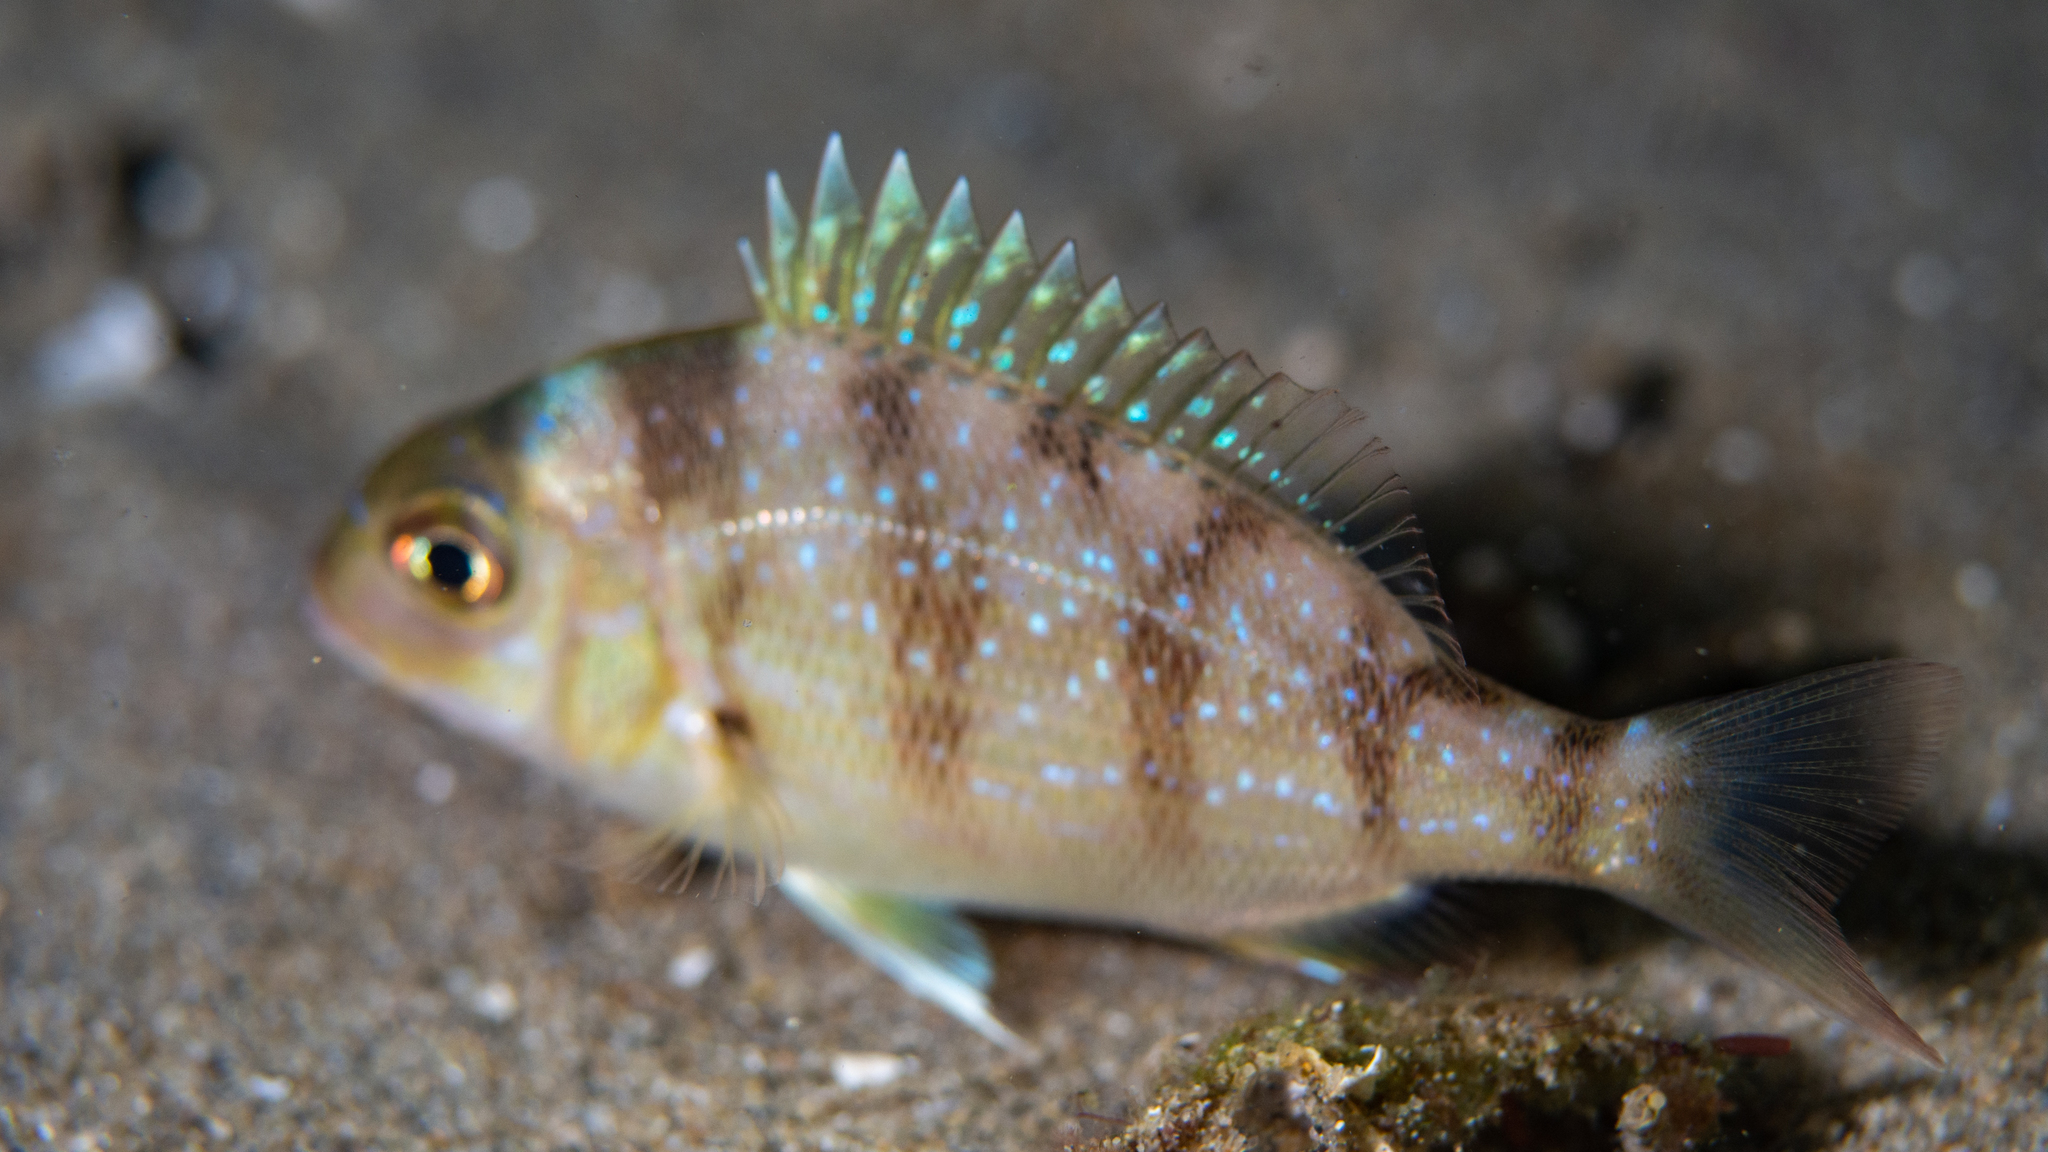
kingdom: Animalia
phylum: Chordata
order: Perciformes
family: Sparidae
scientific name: Sparidae
